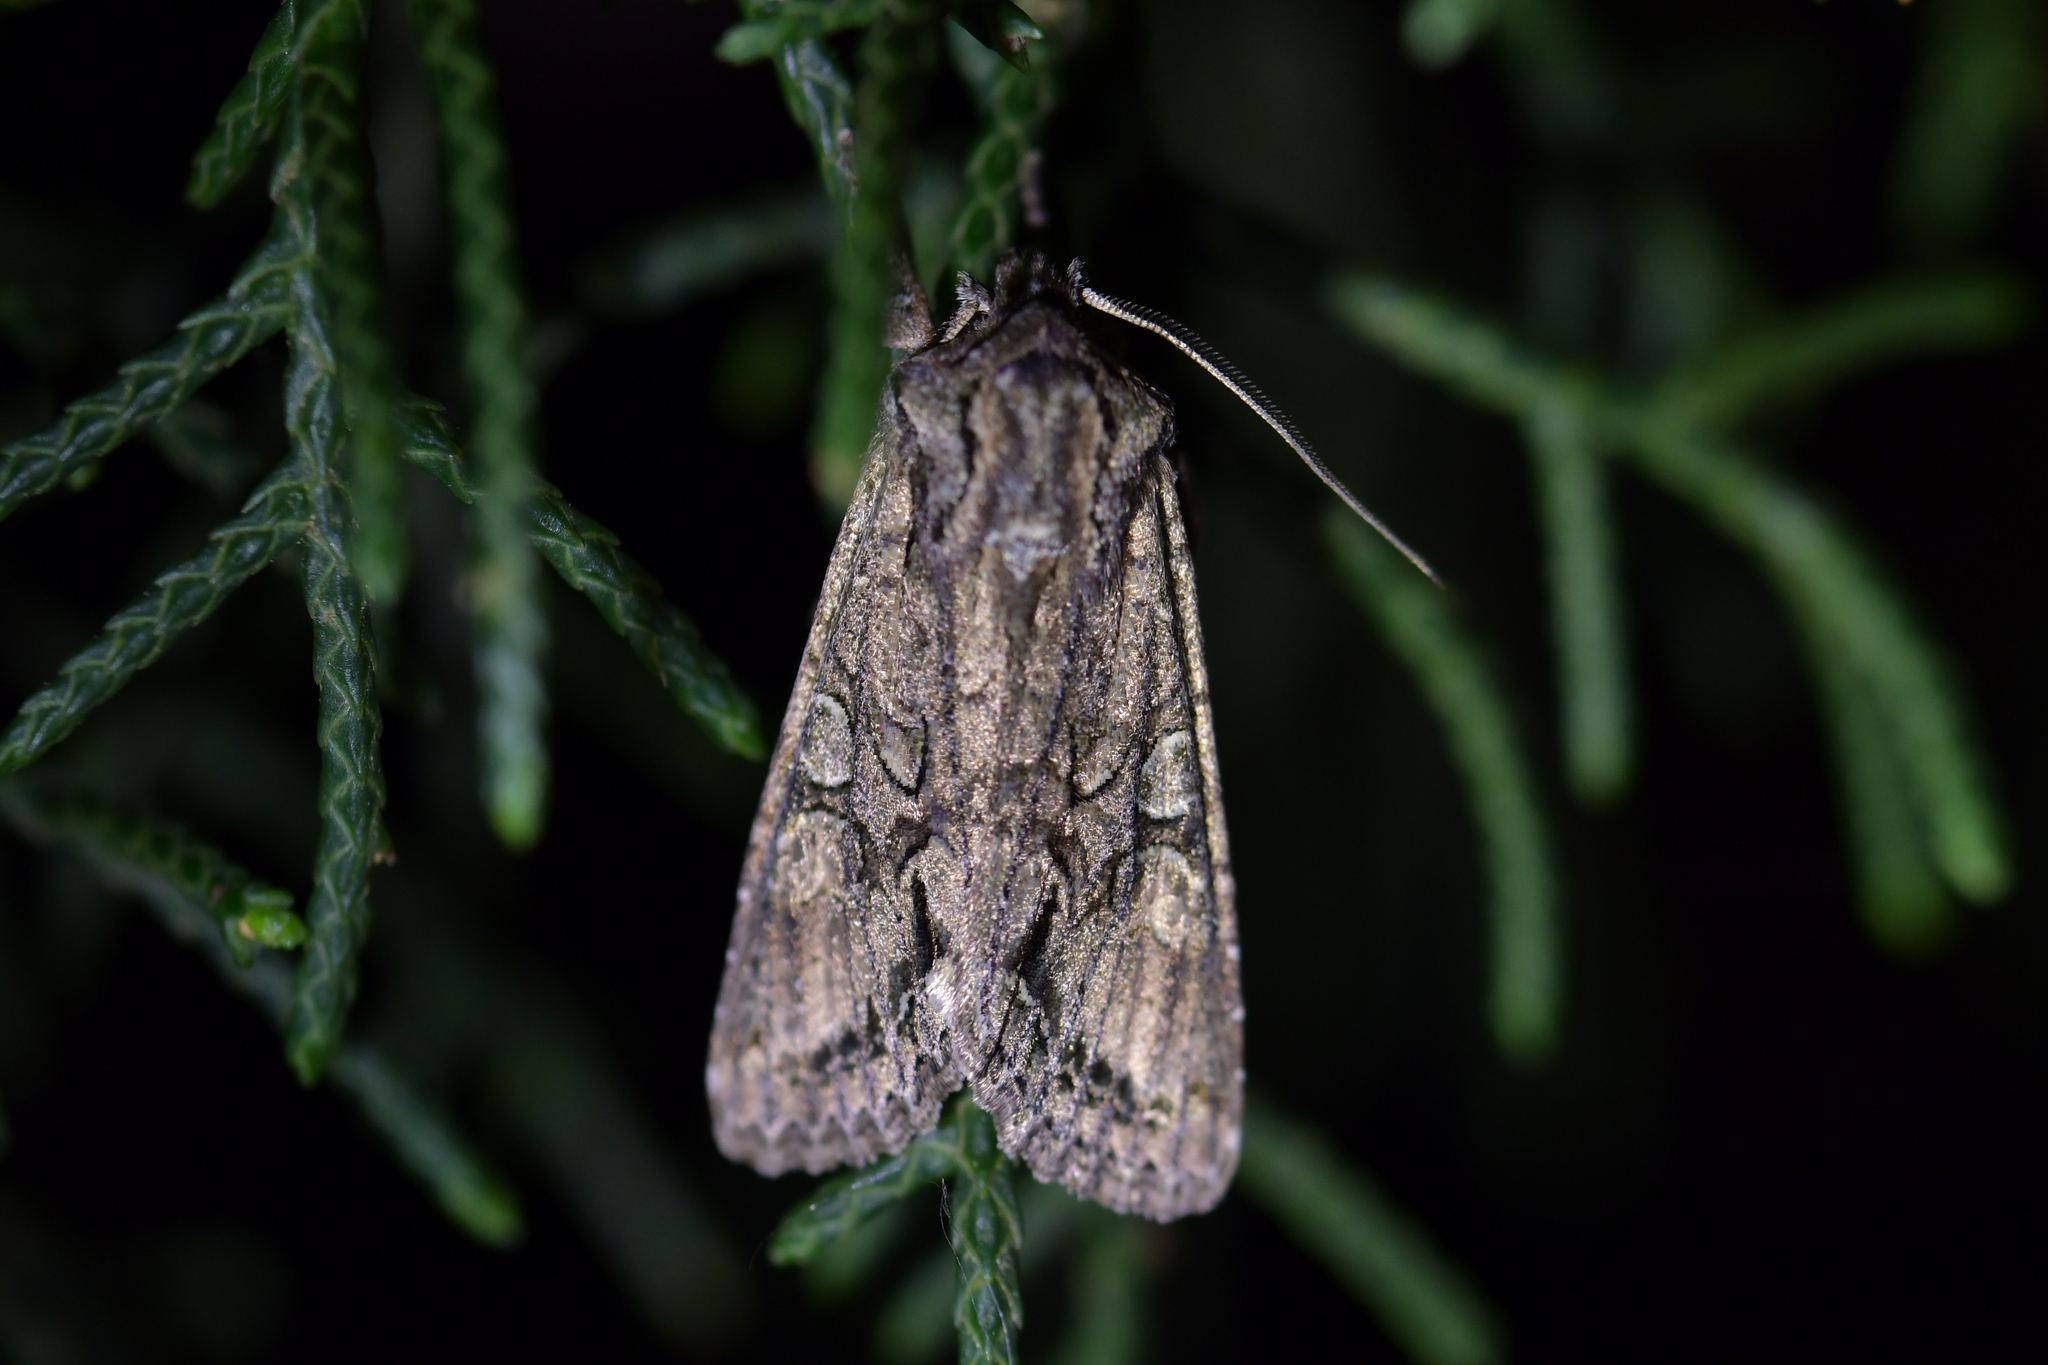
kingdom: Animalia
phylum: Arthropoda
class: Insecta
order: Lepidoptera
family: Noctuidae
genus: Ichneutica
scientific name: Ichneutica mutans
